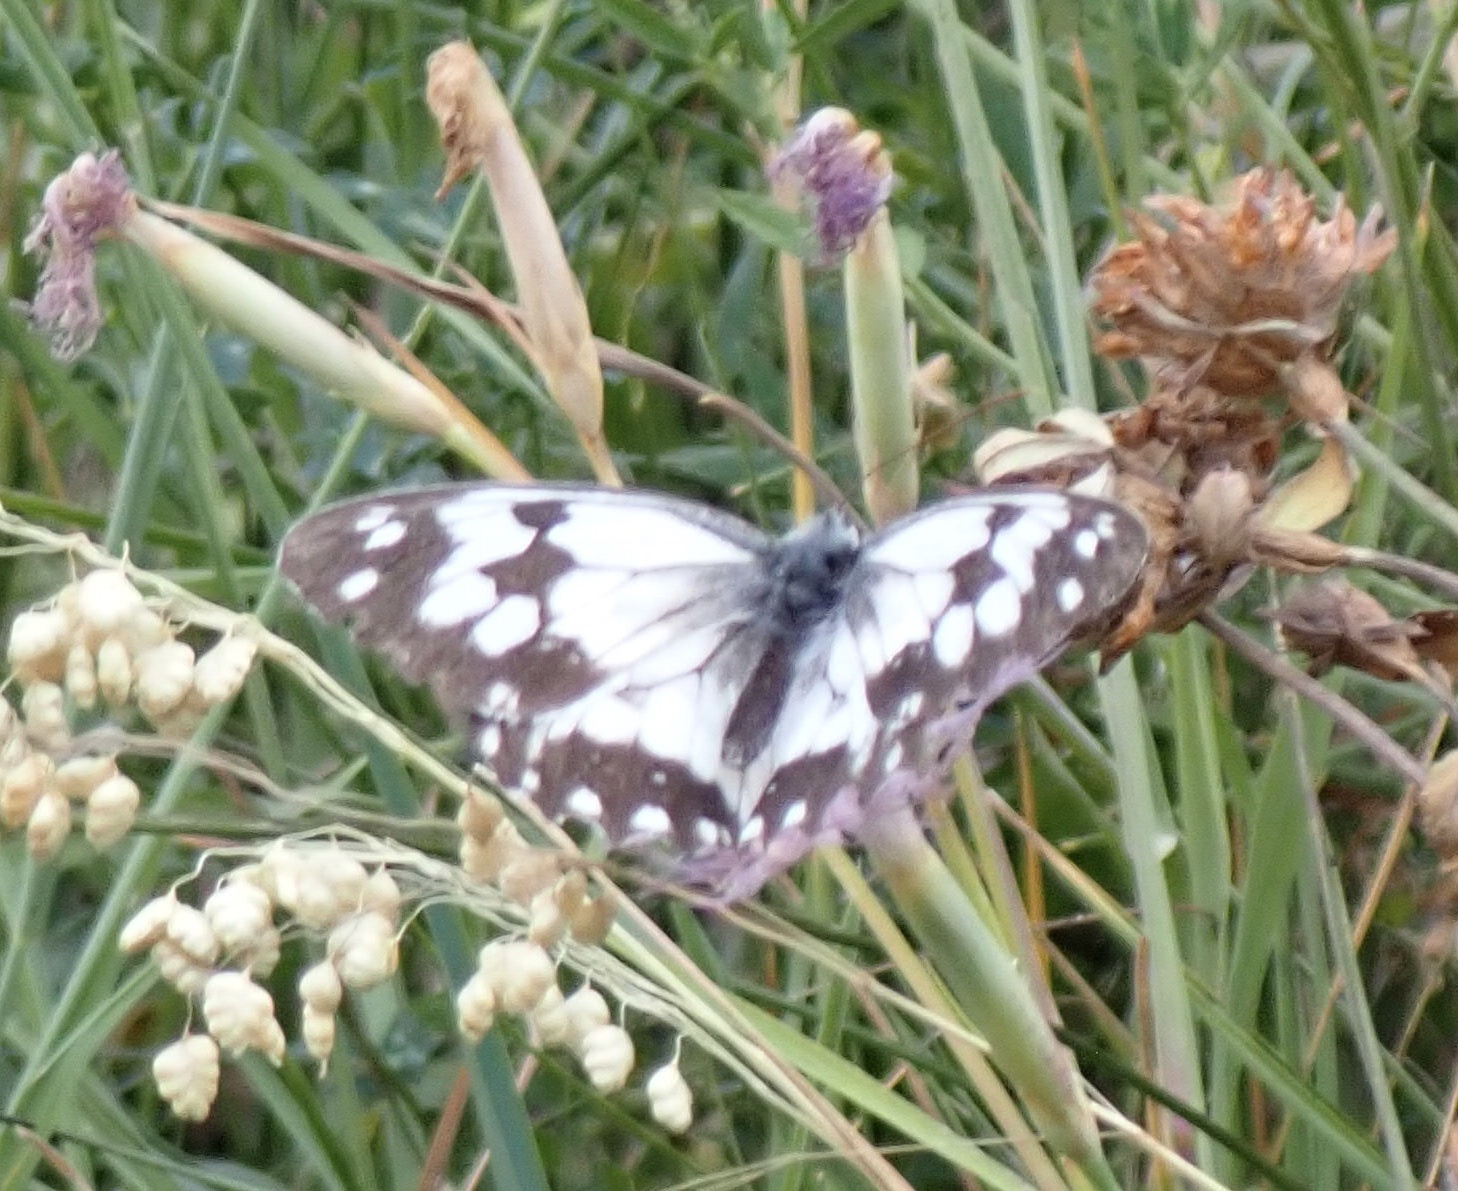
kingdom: Animalia
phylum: Arthropoda
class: Insecta
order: Lepidoptera
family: Nymphalidae
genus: Melanargia
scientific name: Melanargia lachesis
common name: Iberian marbled white
